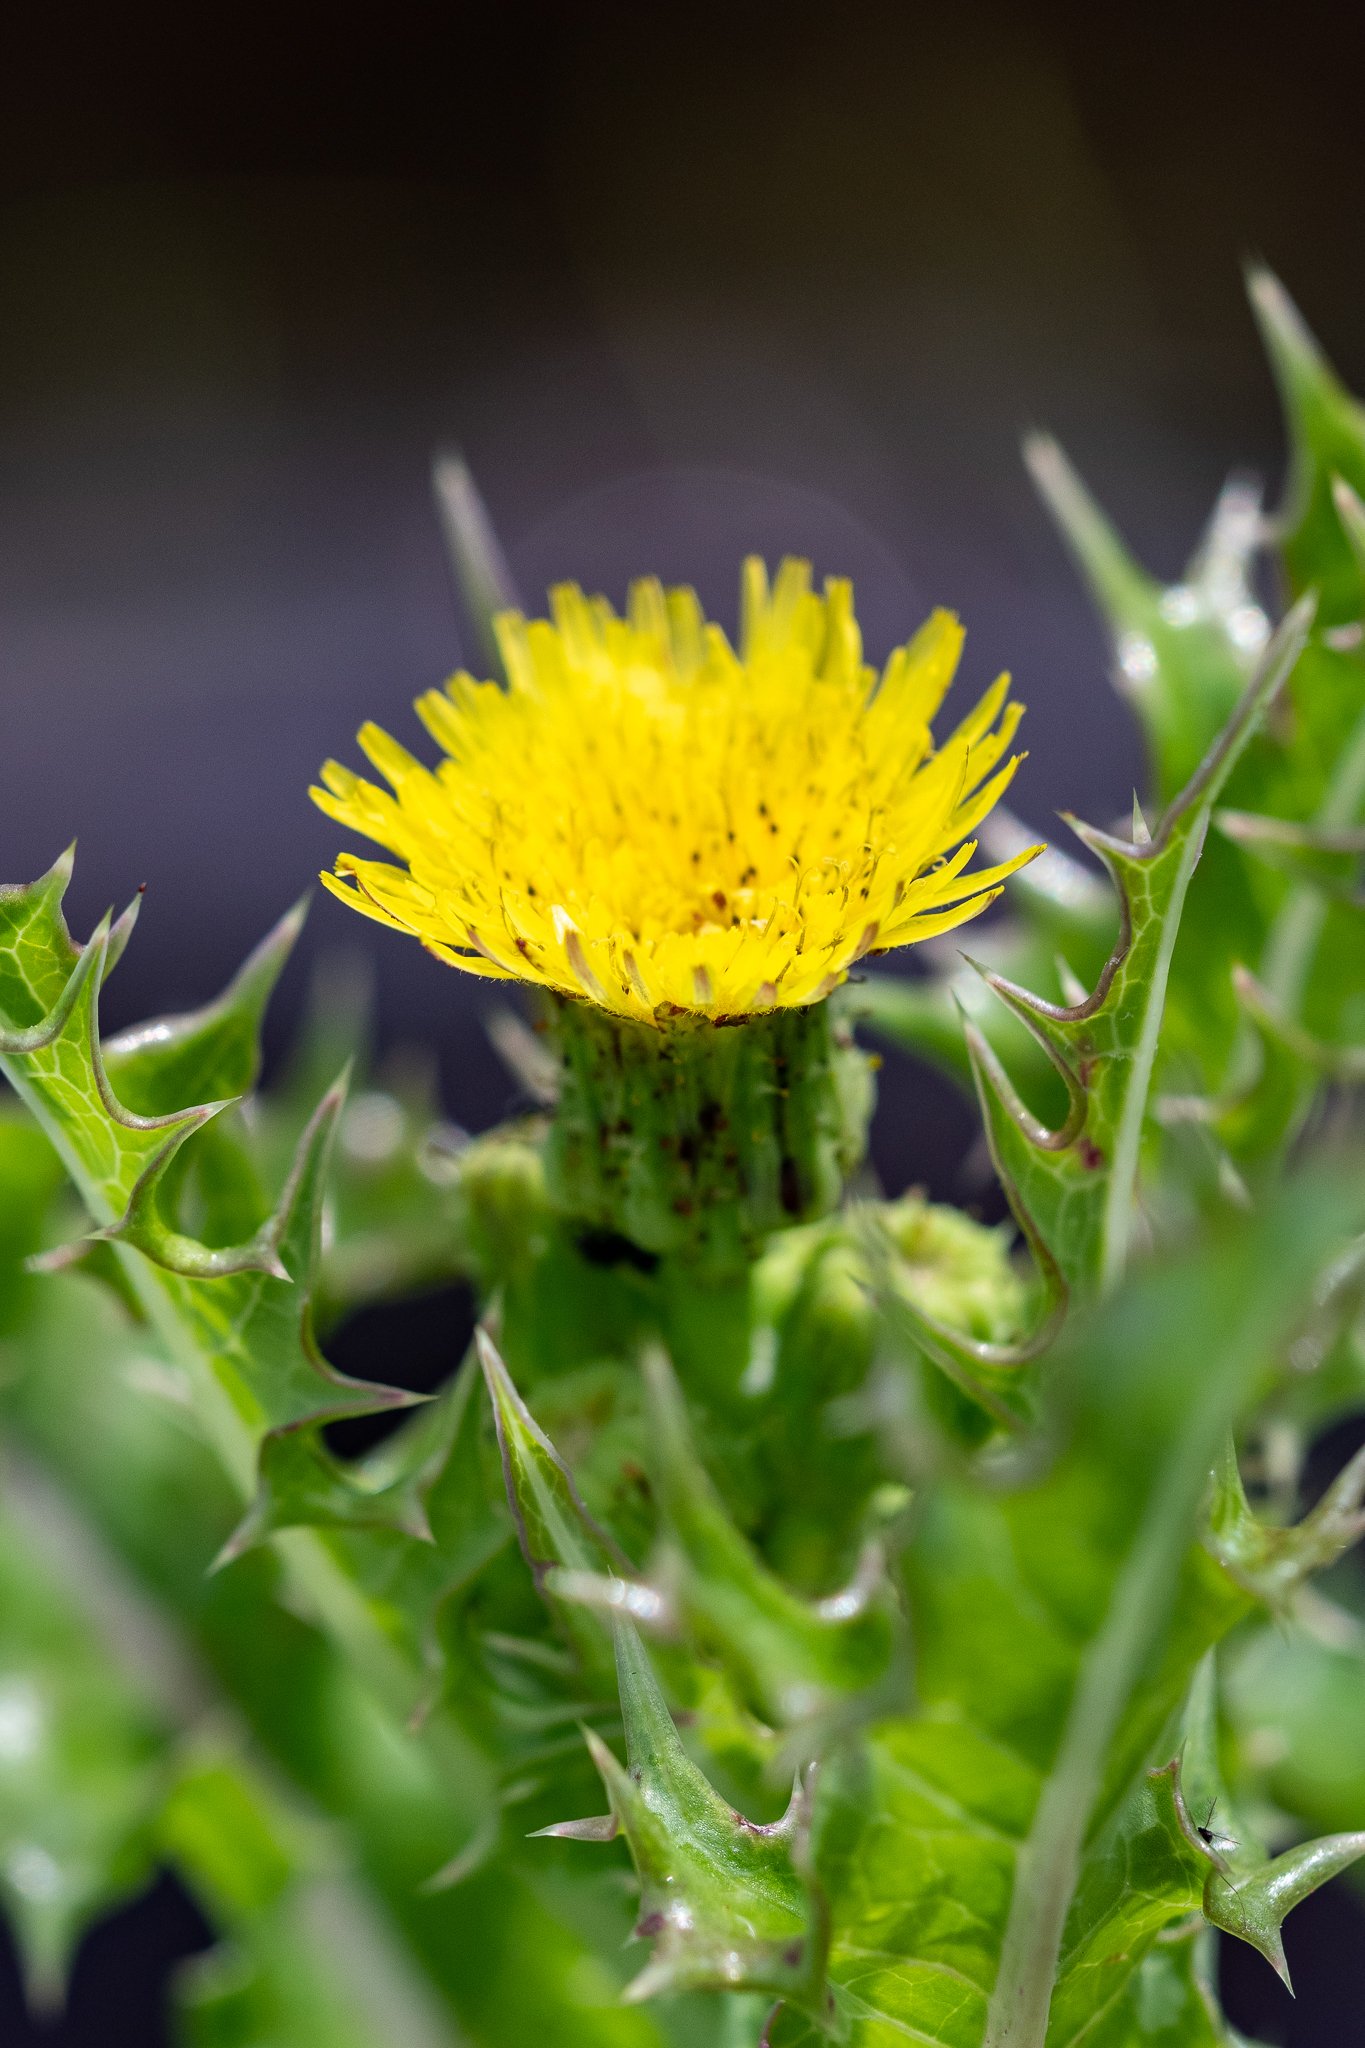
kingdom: Plantae
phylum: Tracheophyta
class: Magnoliopsida
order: Asterales
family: Asteraceae
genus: Sonchus
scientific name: Sonchus asper
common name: Prickly sow-thistle
